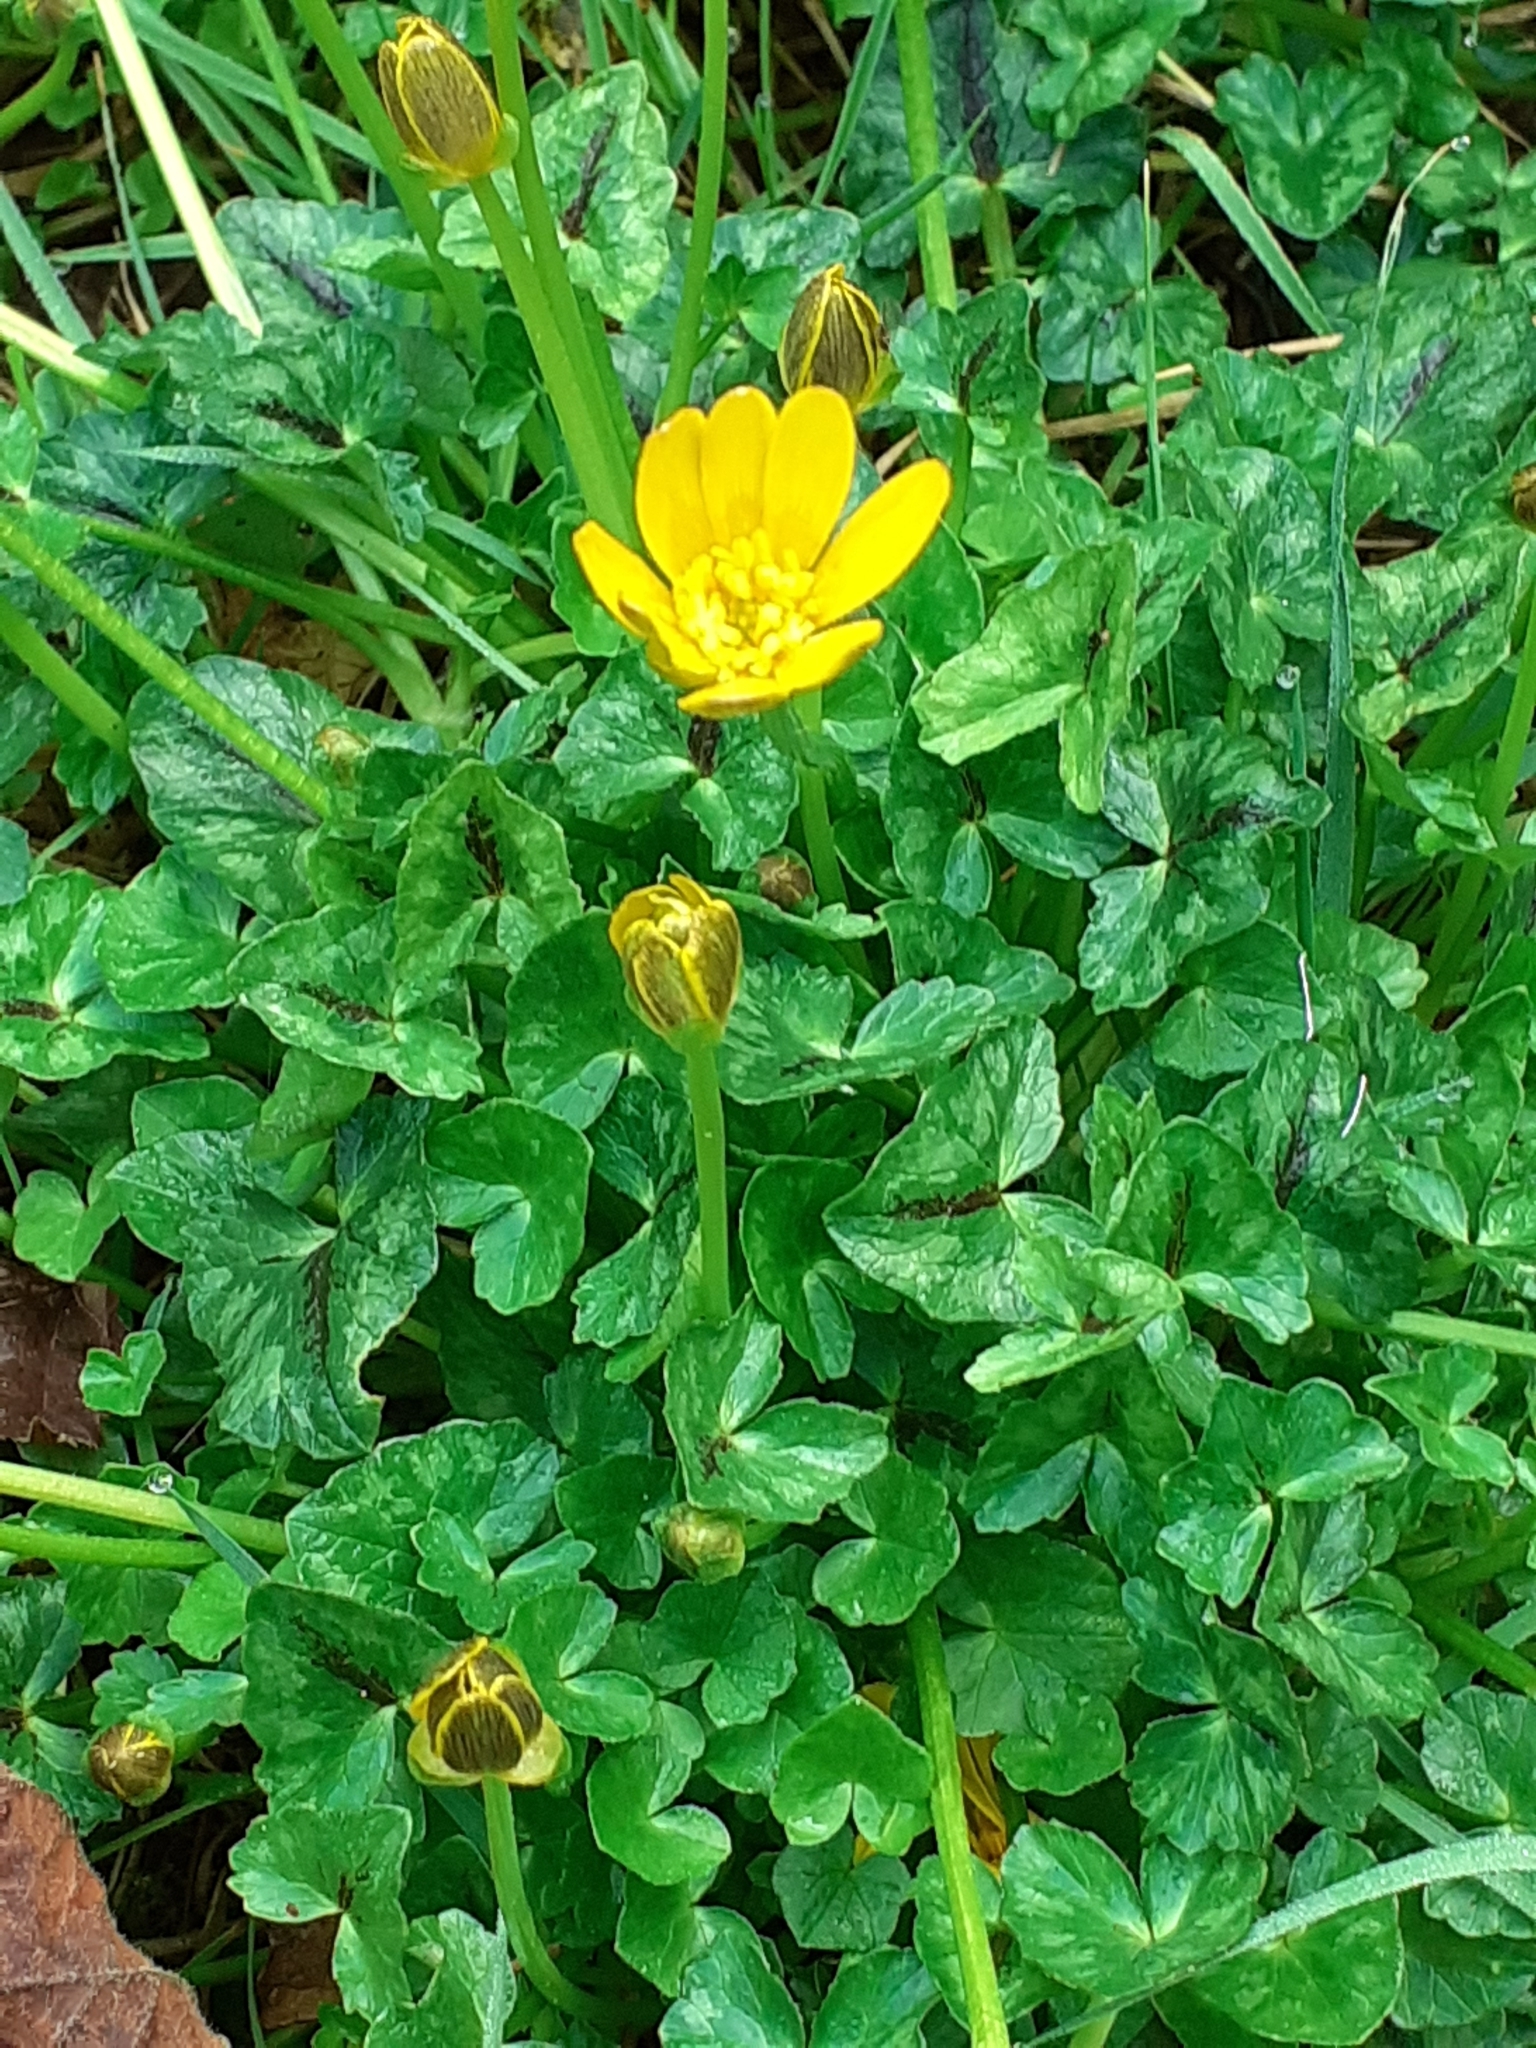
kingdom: Plantae
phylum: Tracheophyta
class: Magnoliopsida
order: Ranunculales
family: Ranunculaceae
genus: Ficaria
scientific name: Ficaria verna
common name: Lesser celandine
